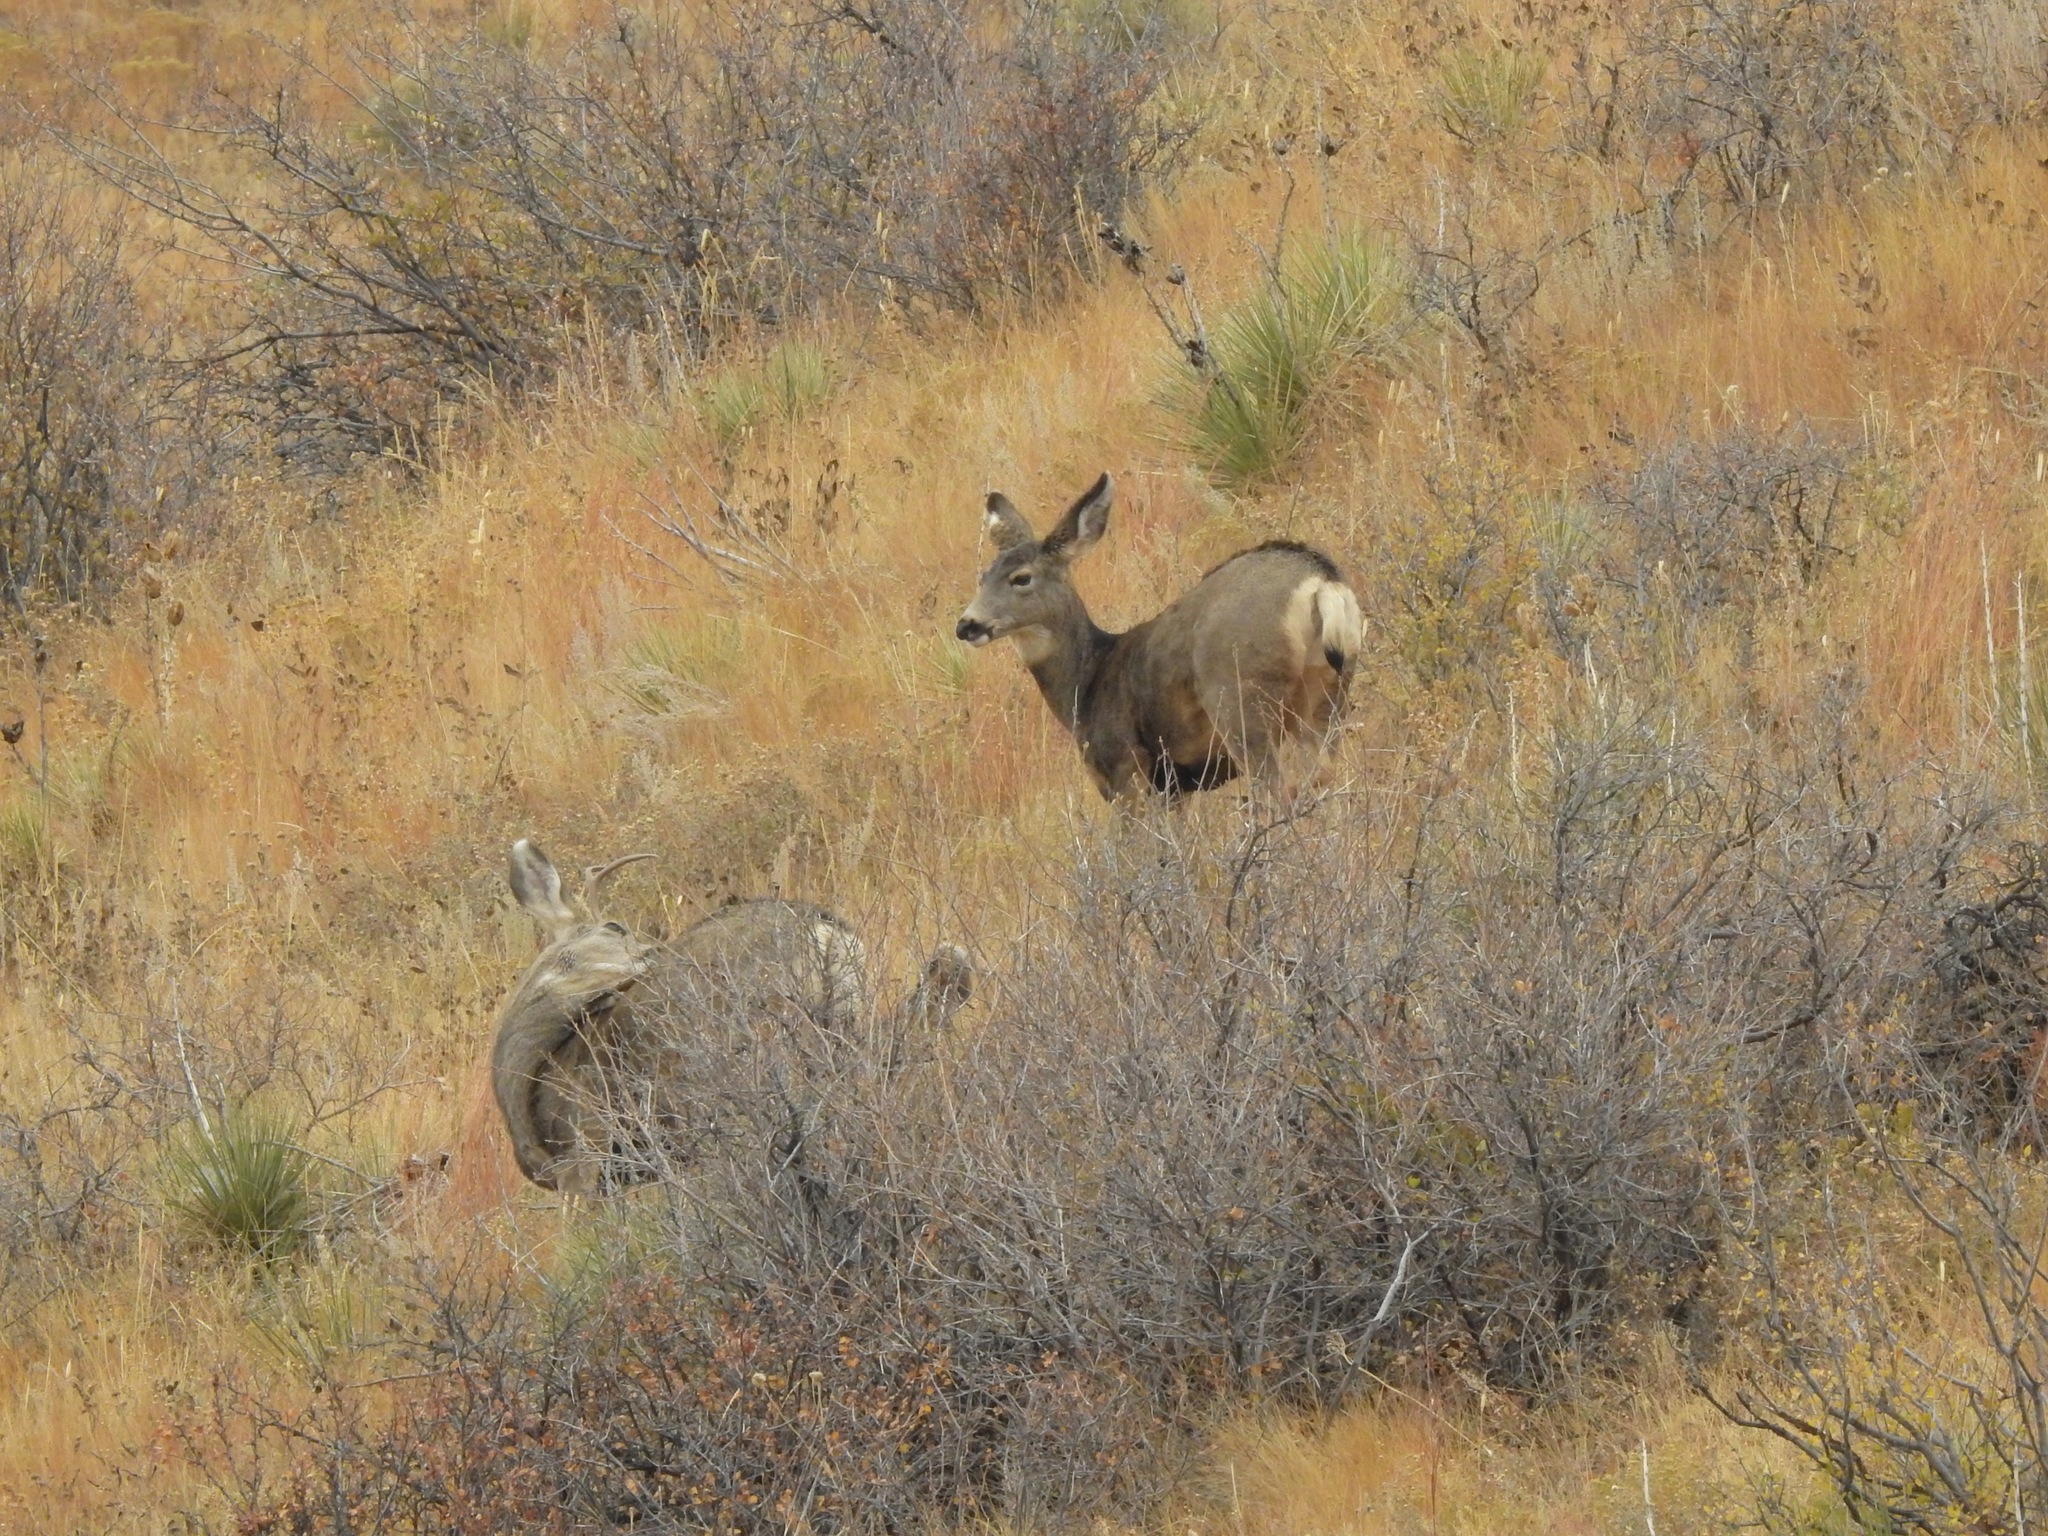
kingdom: Animalia
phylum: Chordata
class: Mammalia
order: Artiodactyla
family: Cervidae
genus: Odocoileus
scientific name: Odocoileus hemionus
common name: Mule deer
